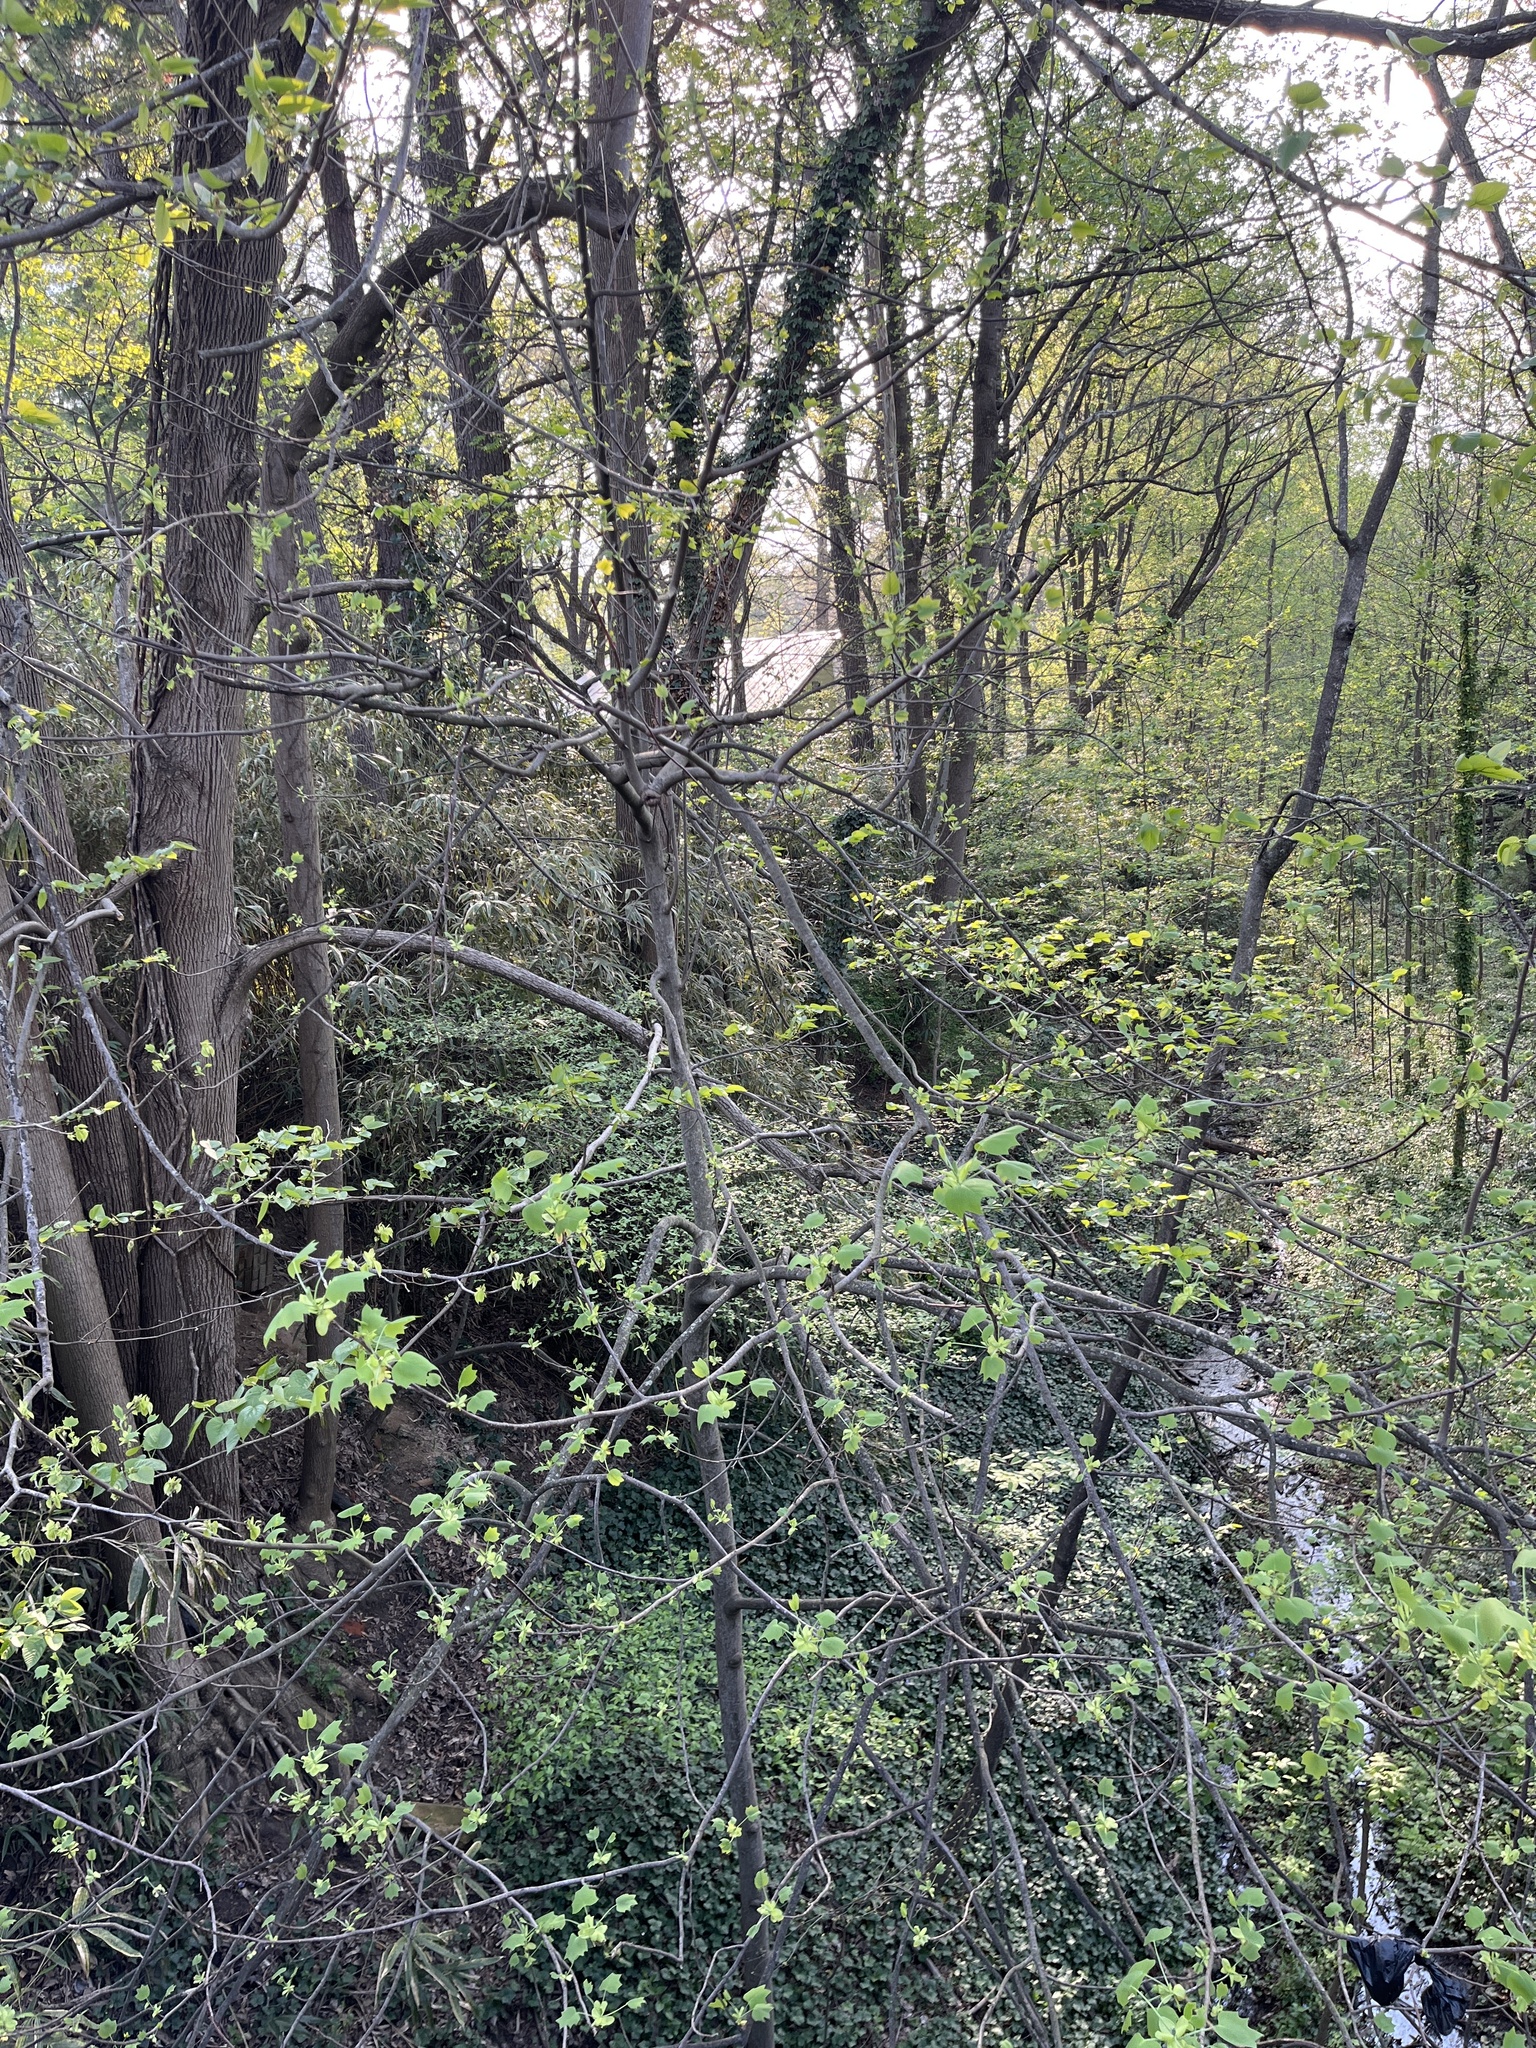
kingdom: Plantae
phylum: Tracheophyta
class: Magnoliopsida
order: Magnoliales
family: Magnoliaceae
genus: Liriodendron
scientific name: Liriodendron tulipifera
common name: Tulip tree
